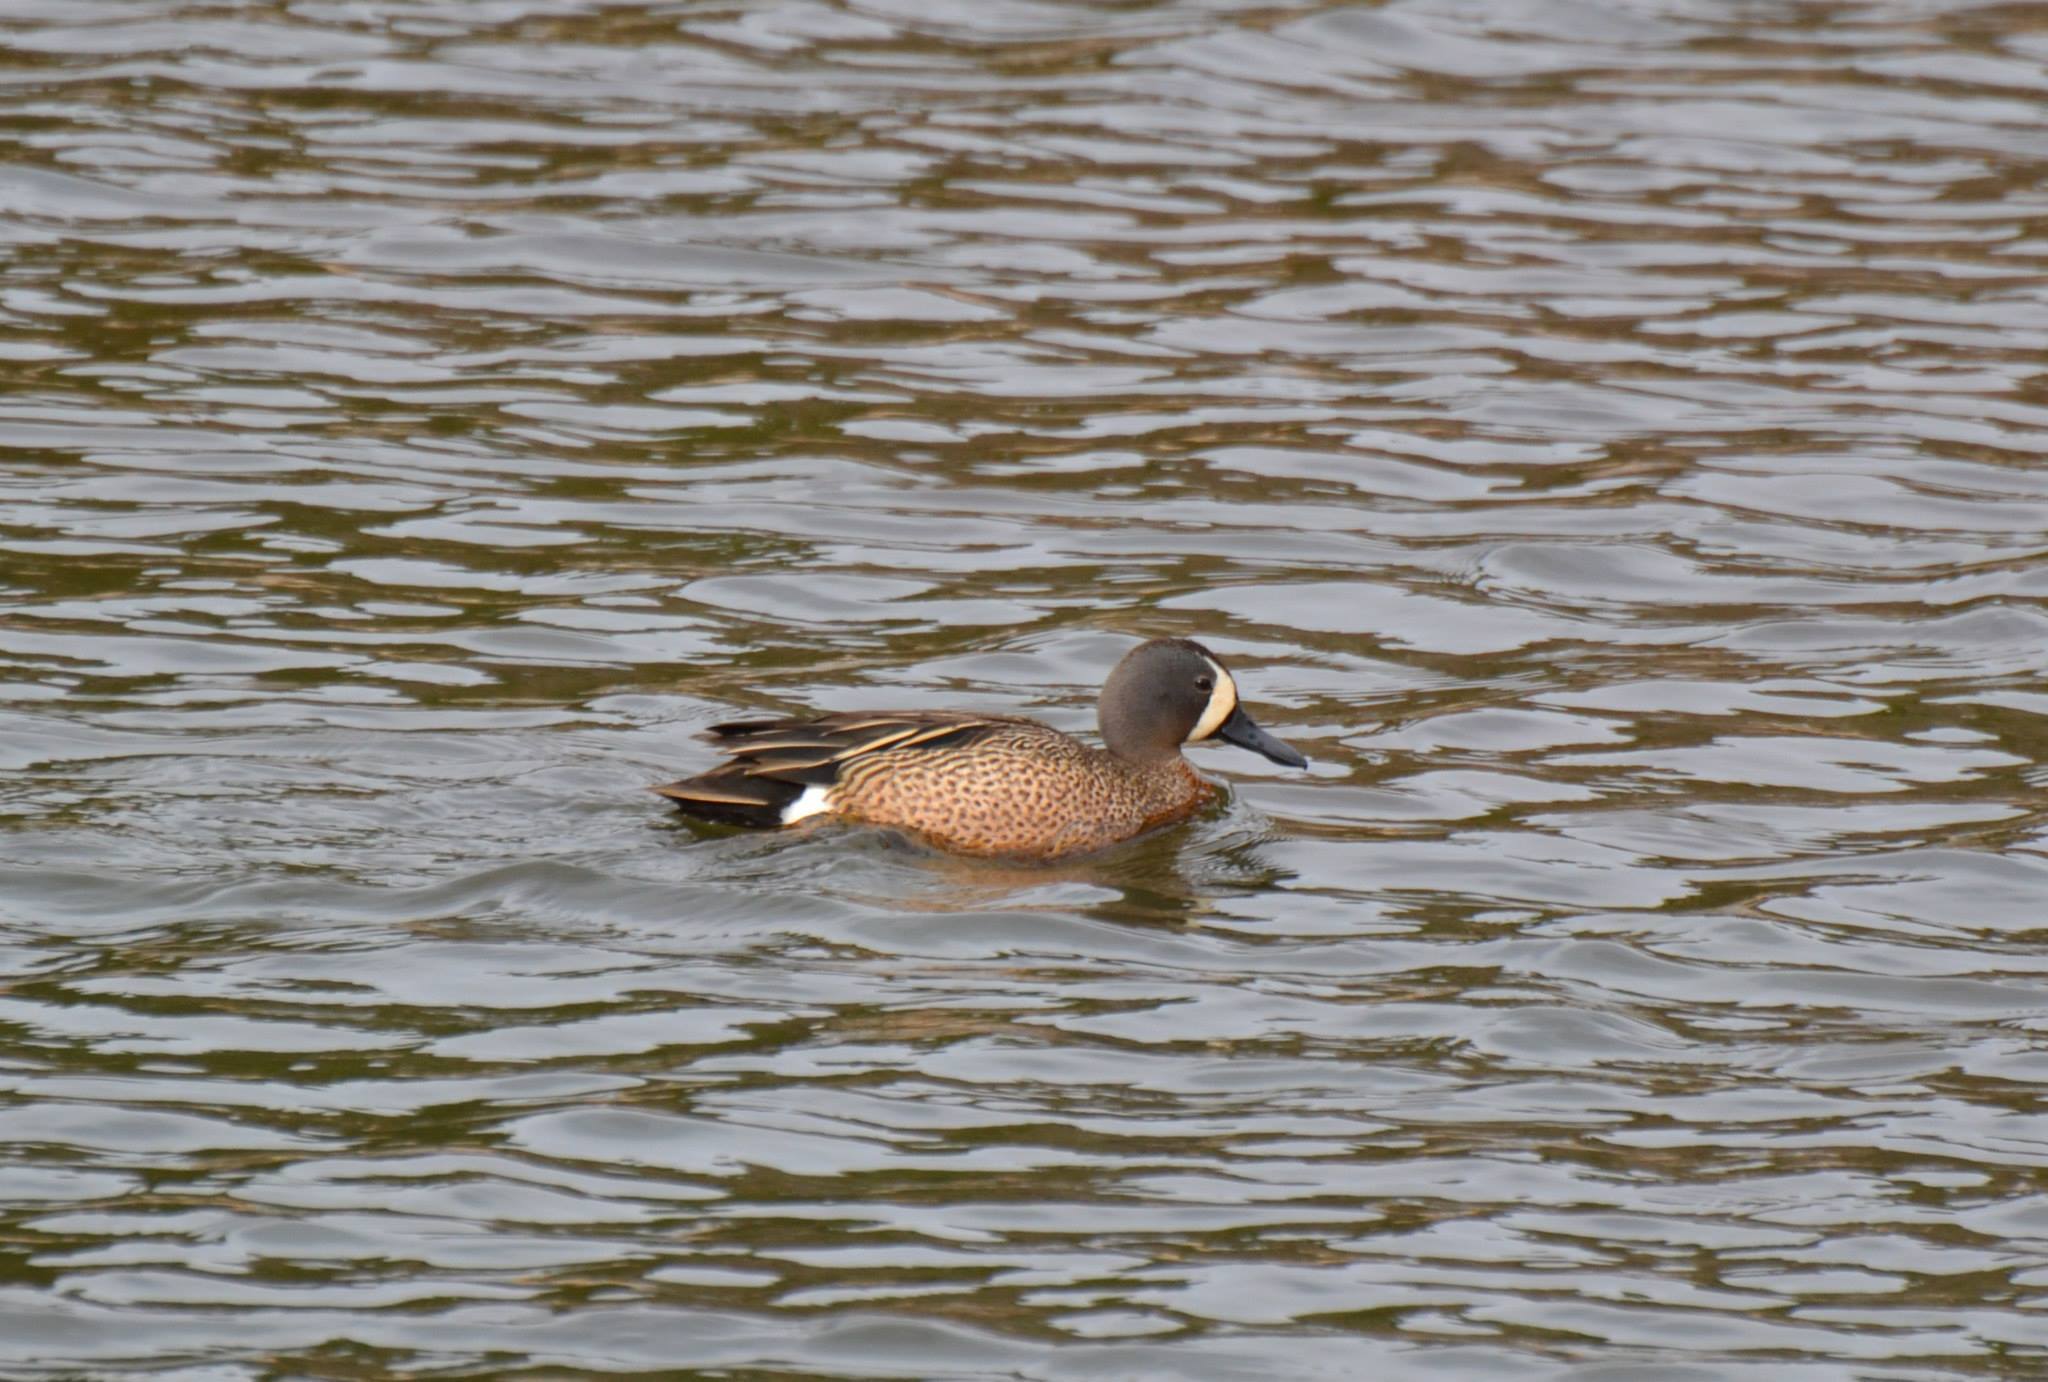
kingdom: Animalia
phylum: Chordata
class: Aves
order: Anseriformes
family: Anatidae
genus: Spatula
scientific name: Spatula discors
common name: Blue-winged teal
